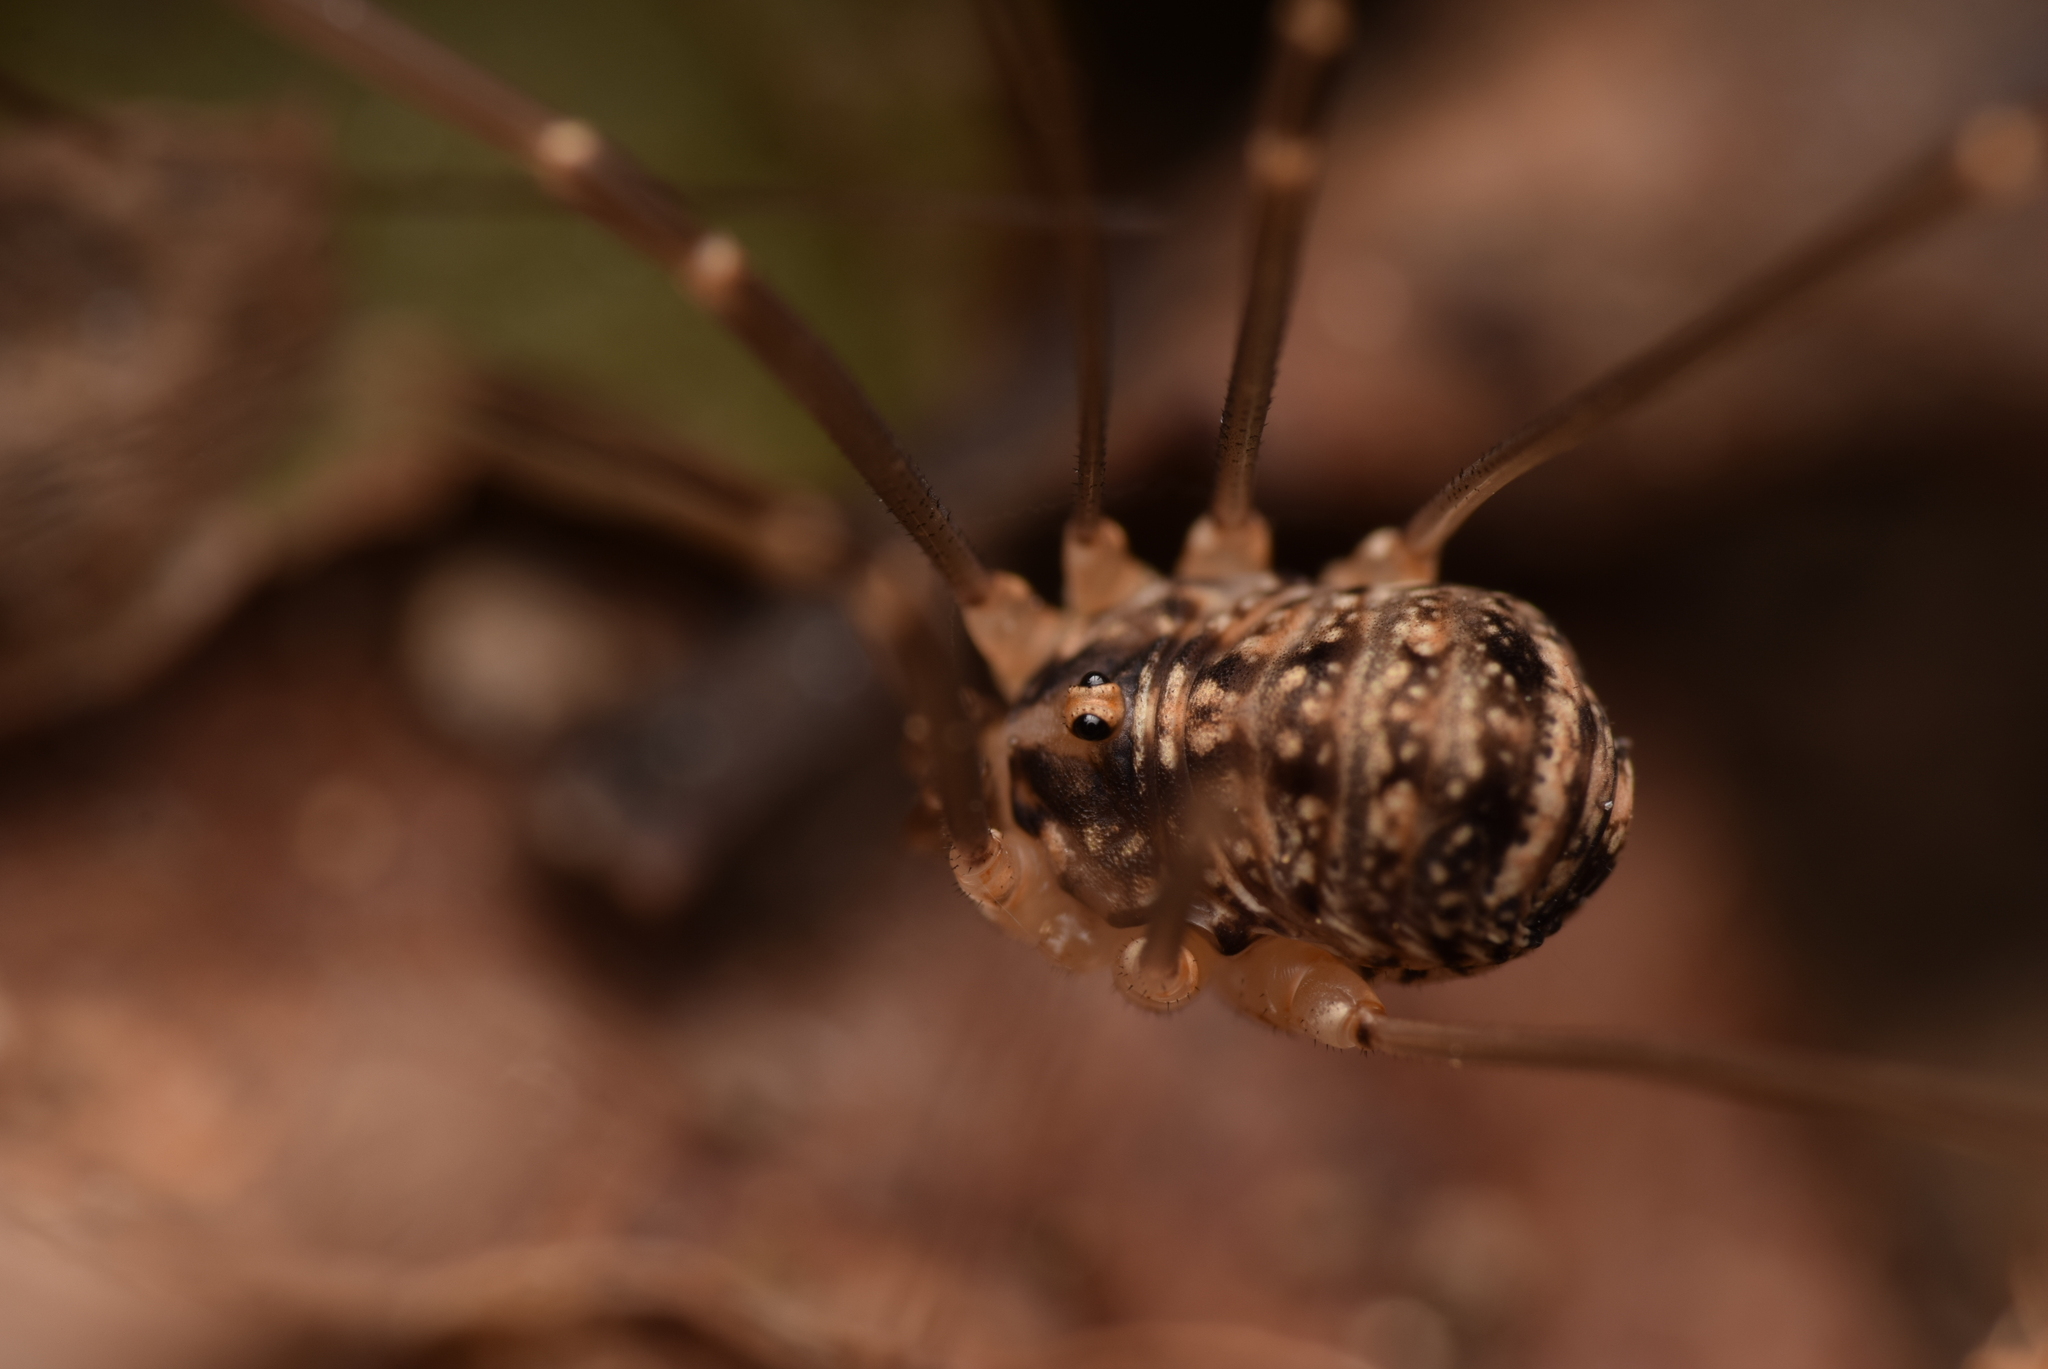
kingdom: Animalia
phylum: Arthropoda
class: Arachnida
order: Opiliones
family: Sclerosomatidae
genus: Nelima
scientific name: Nelima silvatica
